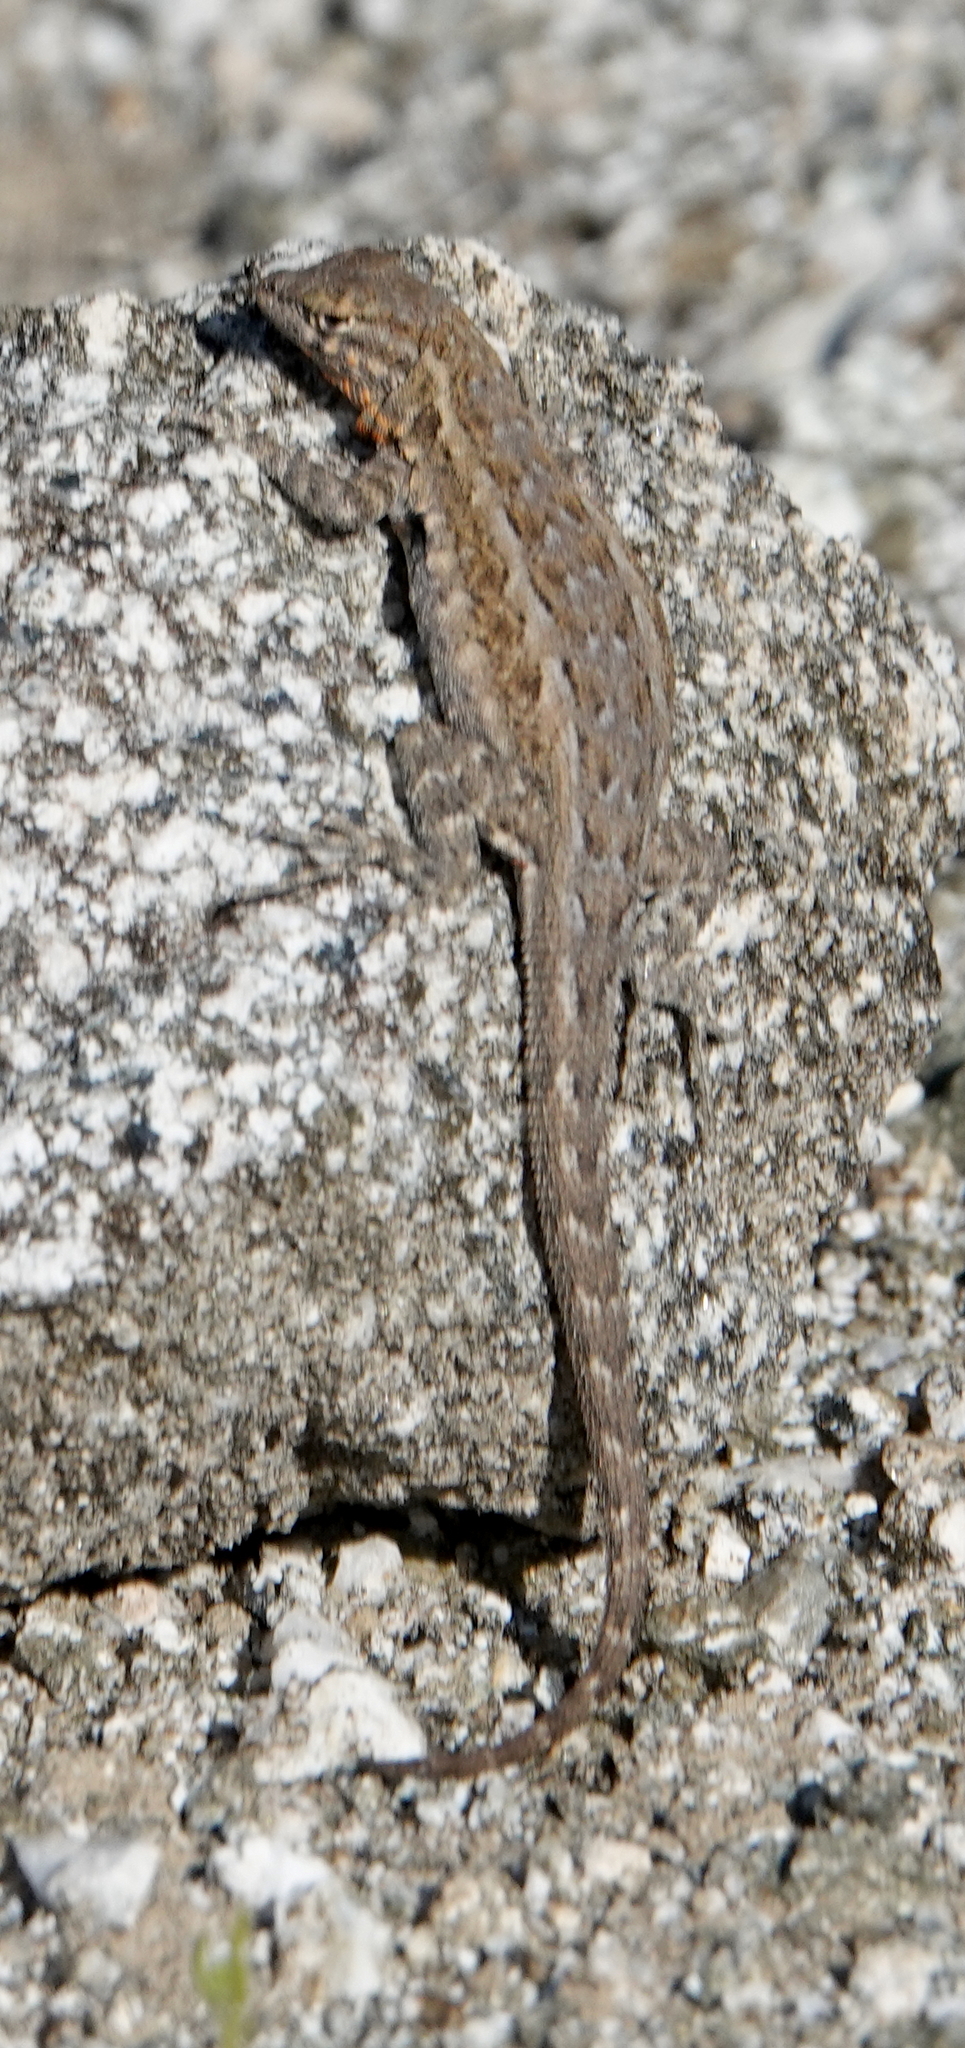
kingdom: Animalia
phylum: Chordata
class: Squamata
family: Phrynosomatidae
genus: Uta
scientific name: Uta stansburiana
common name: Side-blotched lizard
